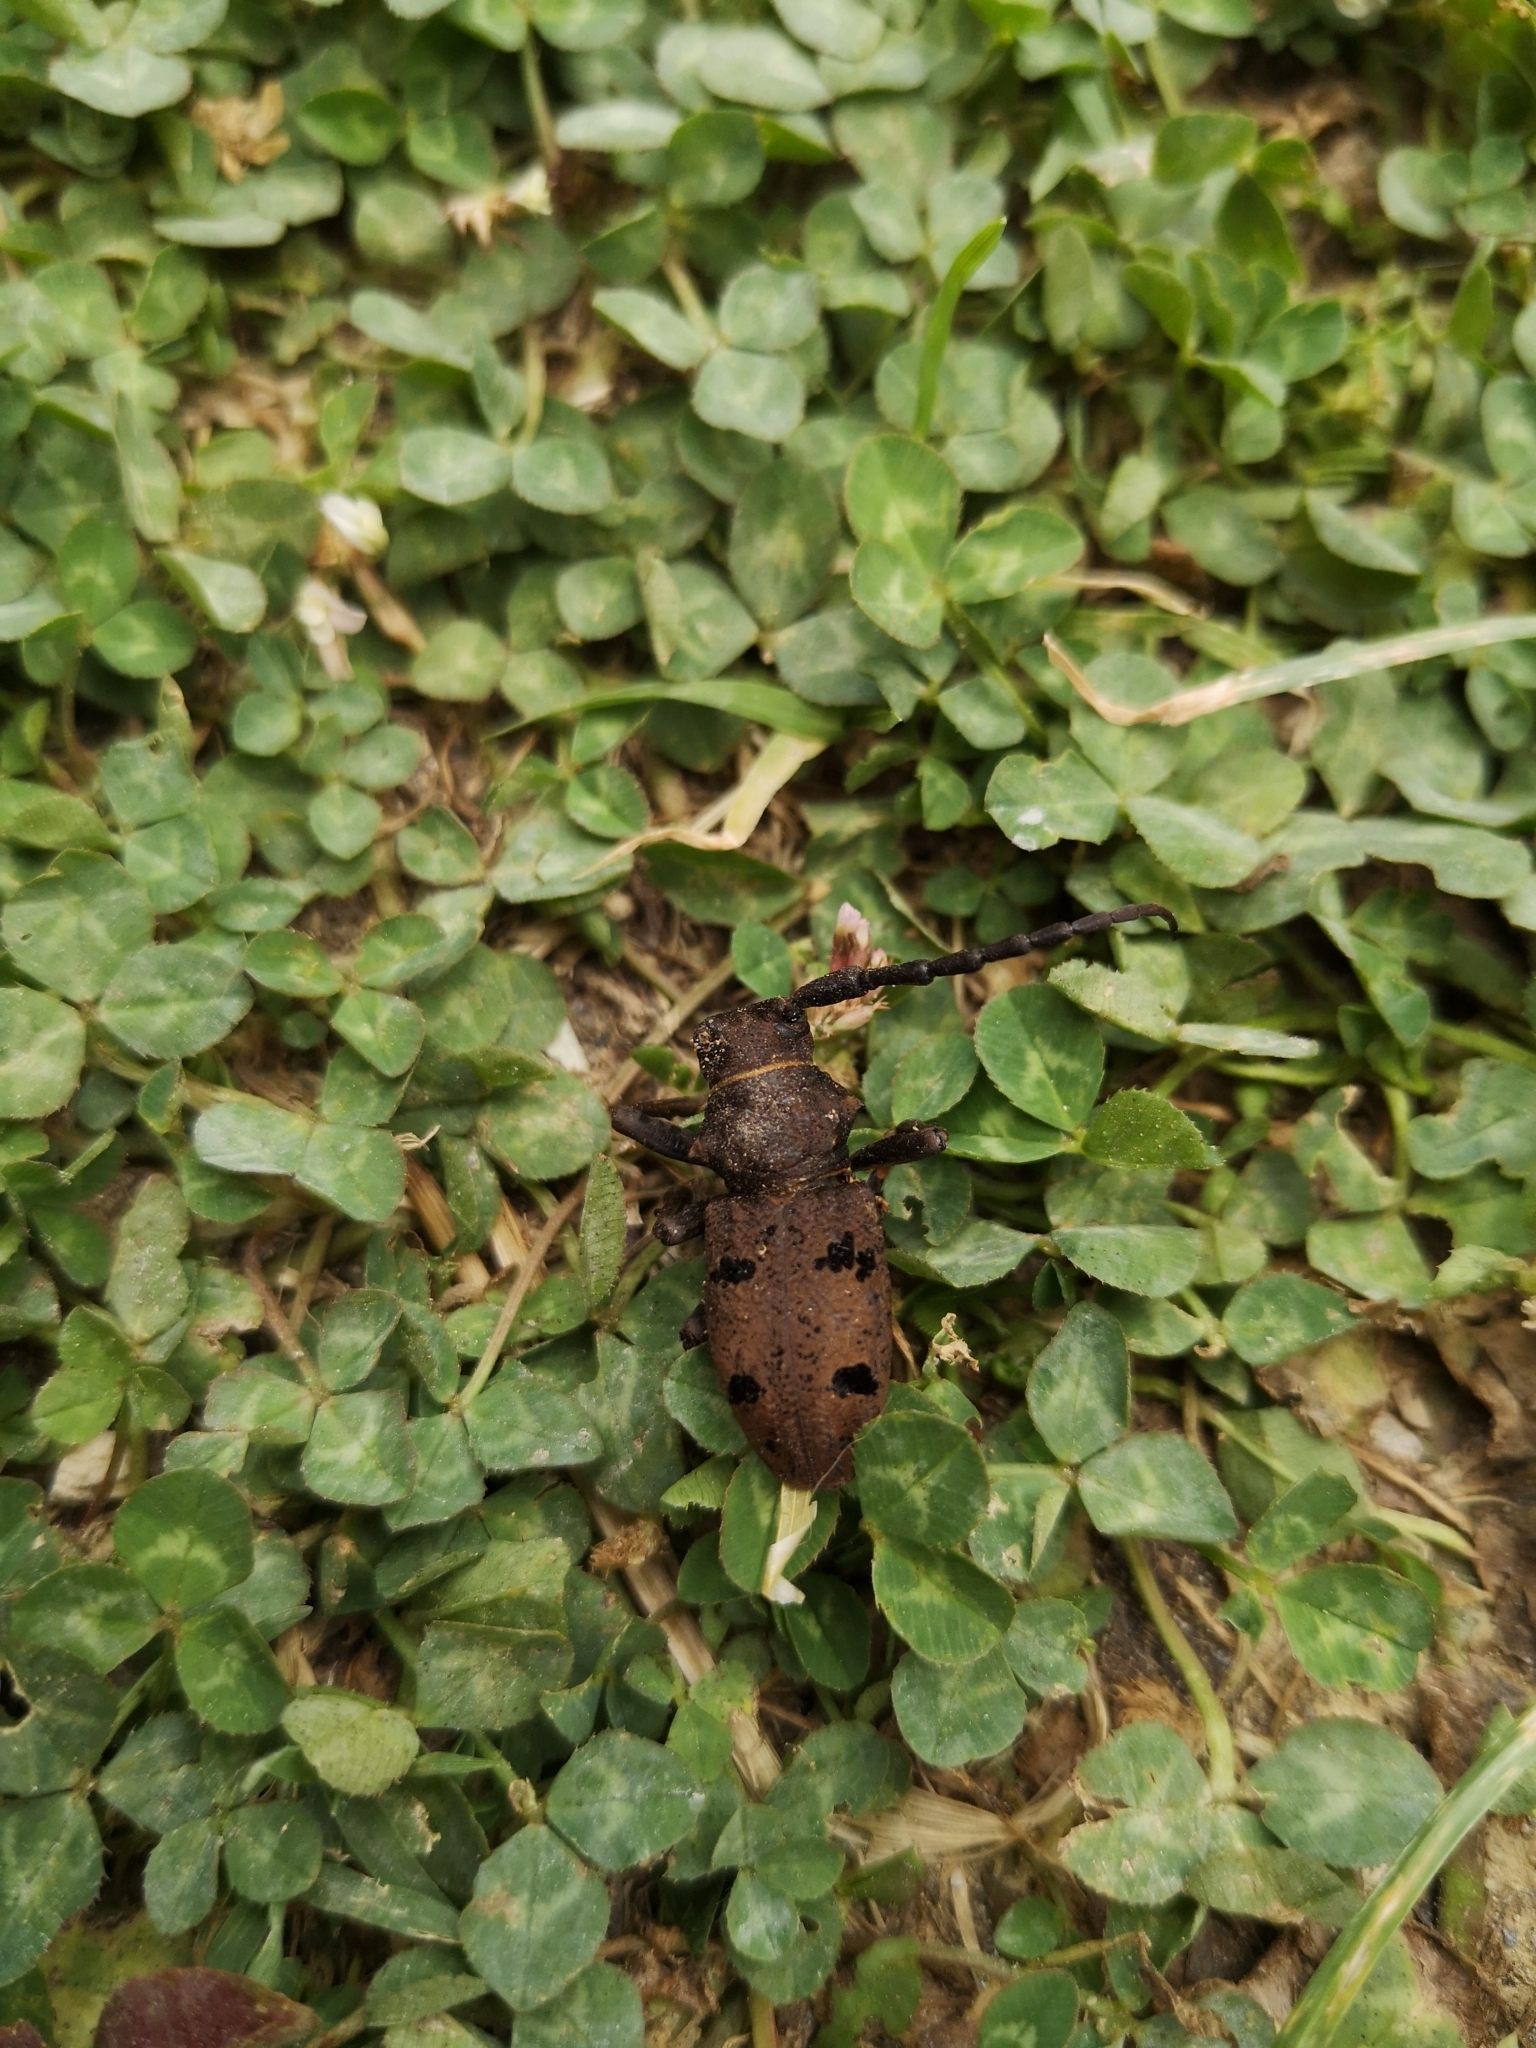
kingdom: Animalia
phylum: Arthropoda
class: Insecta
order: Coleoptera
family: Cerambycidae
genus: Herophila
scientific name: Herophila tristis
